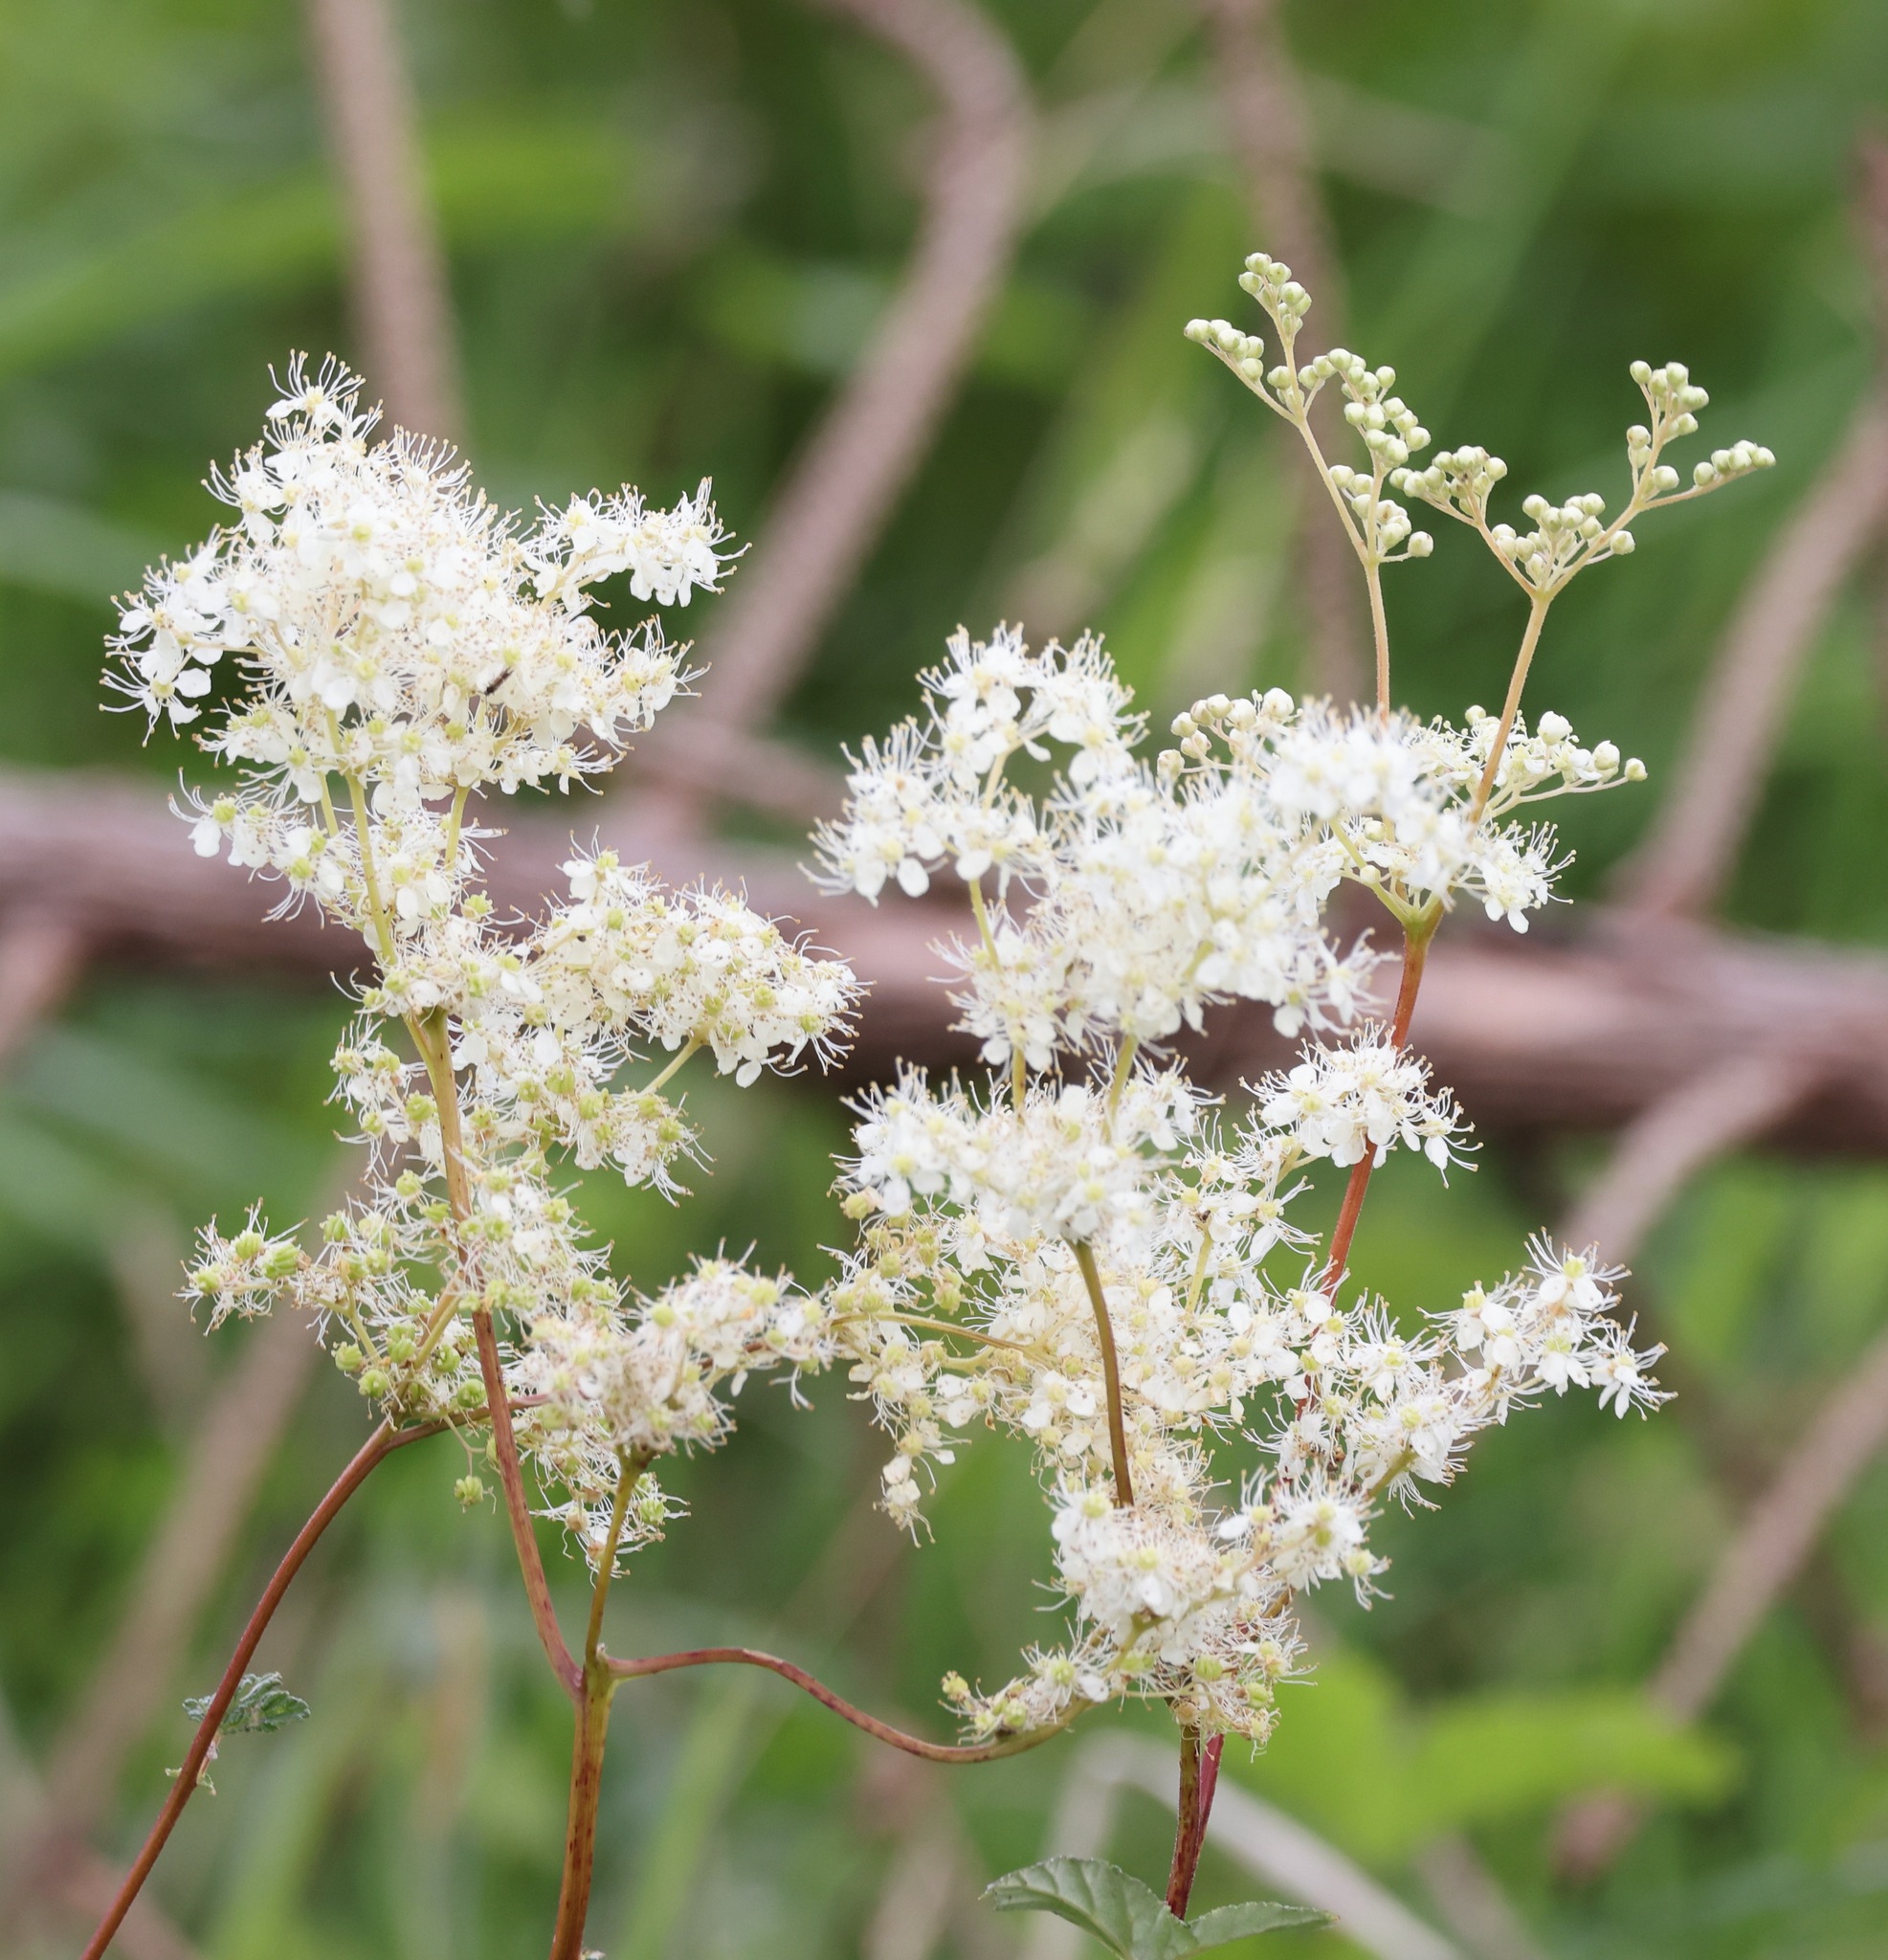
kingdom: Plantae
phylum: Tracheophyta
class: Magnoliopsida
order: Rosales
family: Rosaceae
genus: Filipendula
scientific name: Filipendula ulmaria
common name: Meadowsweet
